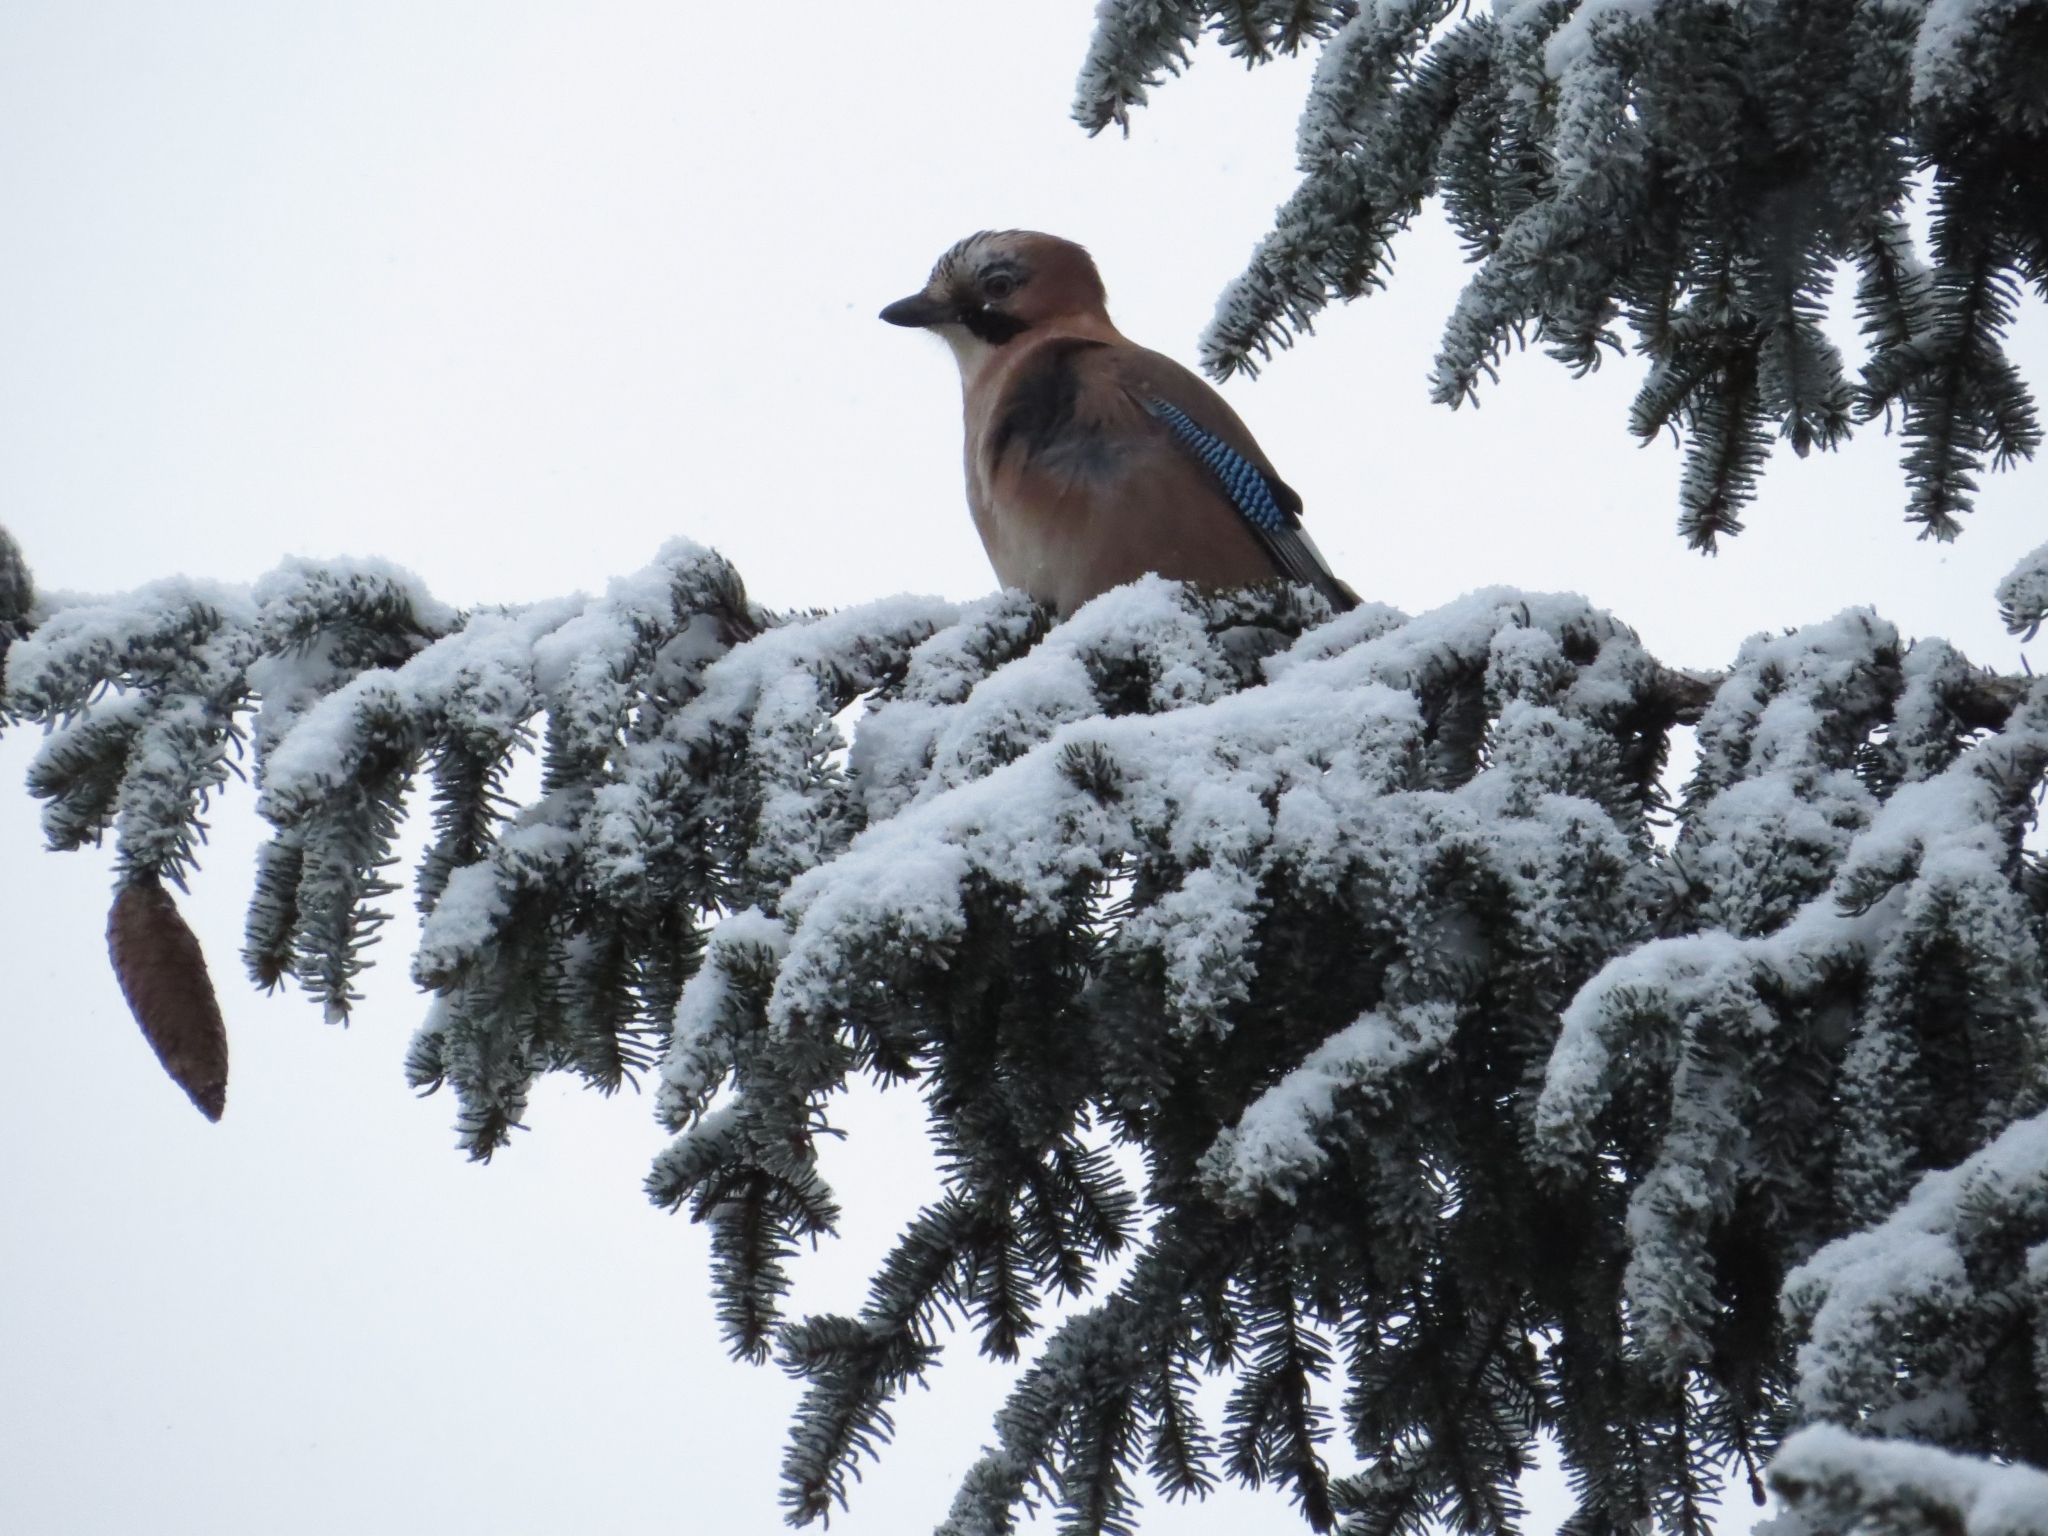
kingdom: Animalia
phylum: Chordata
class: Aves
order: Passeriformes
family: Corvidae
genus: Garrulus
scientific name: Garrulus glandarius
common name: Eurasian jay
